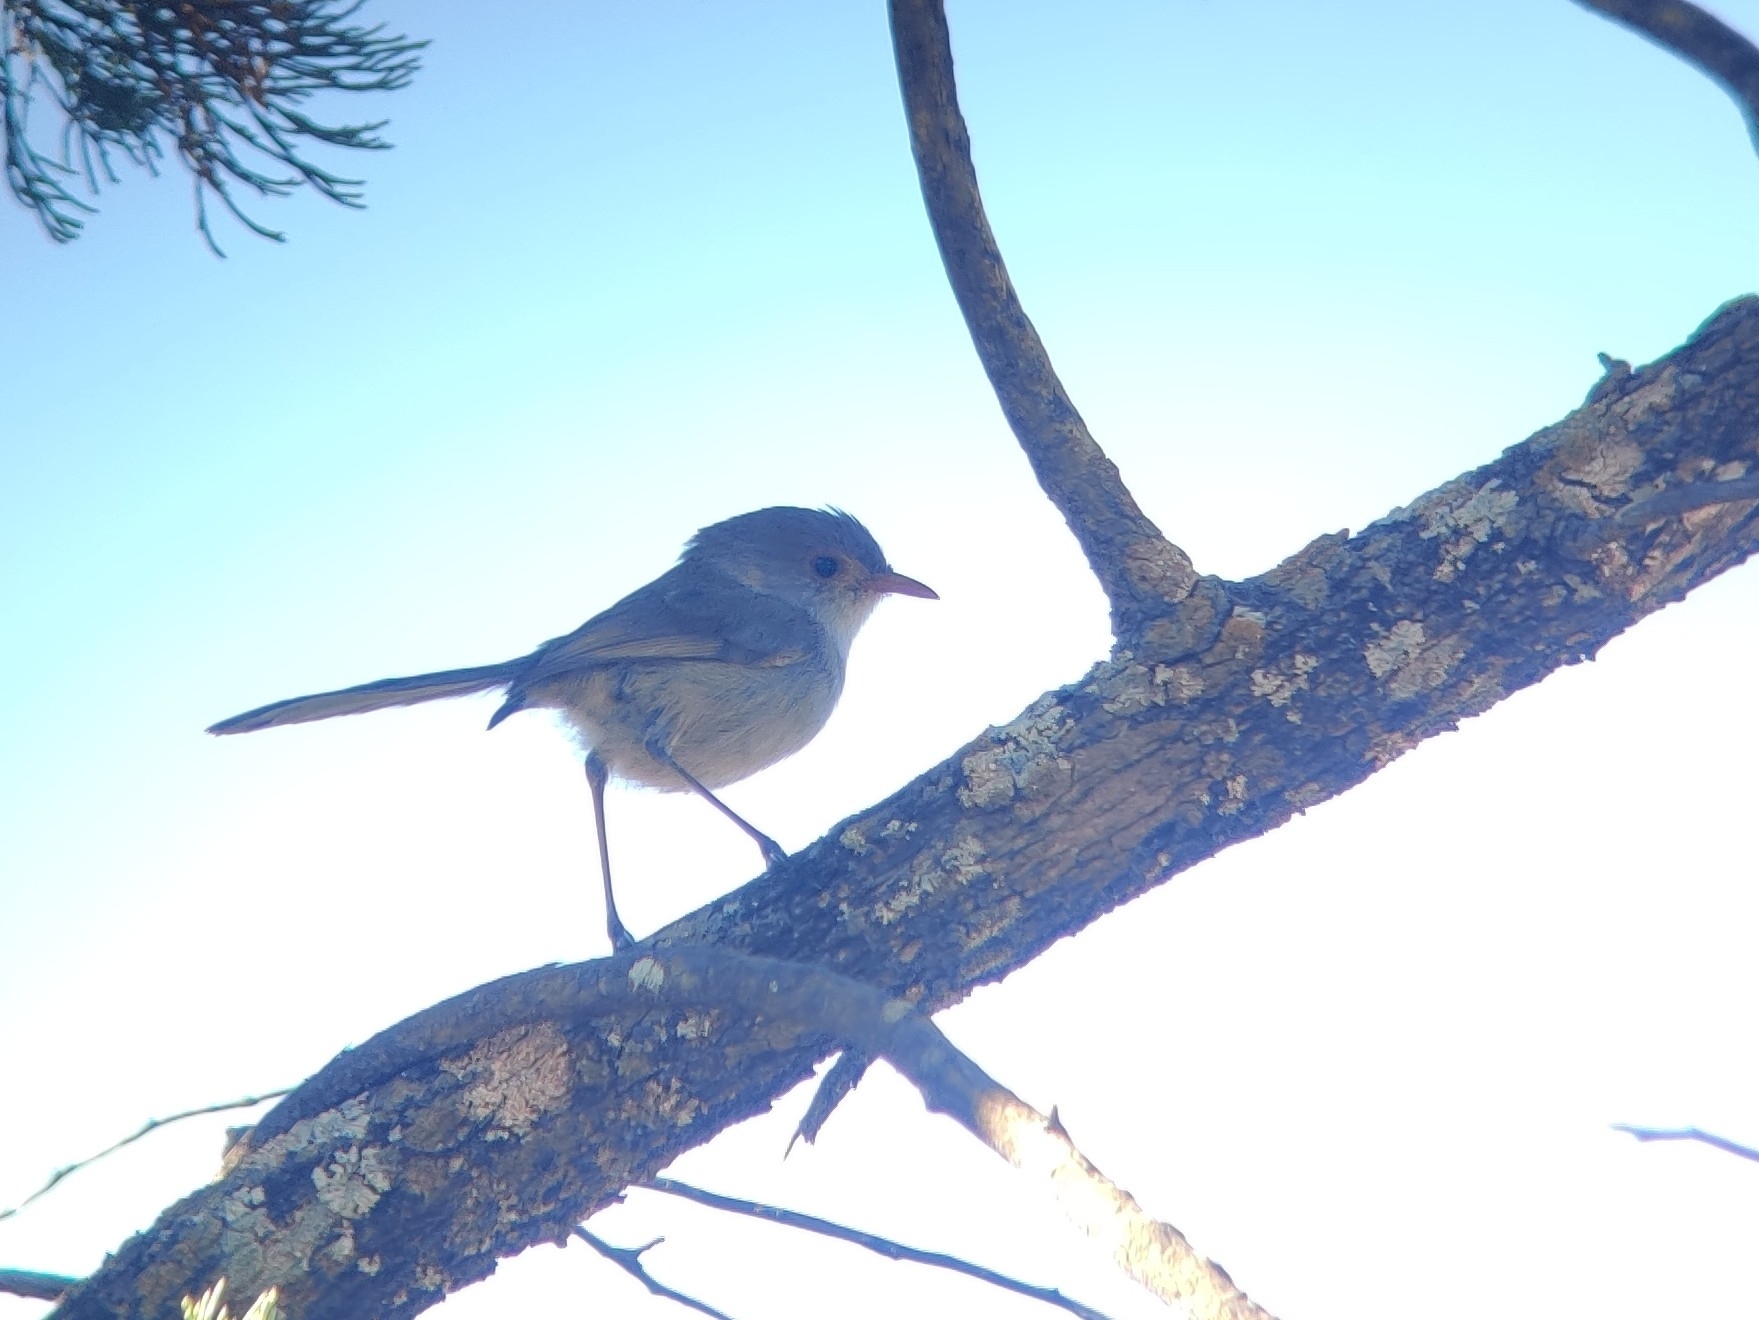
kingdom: Animalia
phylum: Chordata
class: Aves
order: Passeriformes
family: Maluridae
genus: Malurus
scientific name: Malurus splendens
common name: Splendid fairywren
